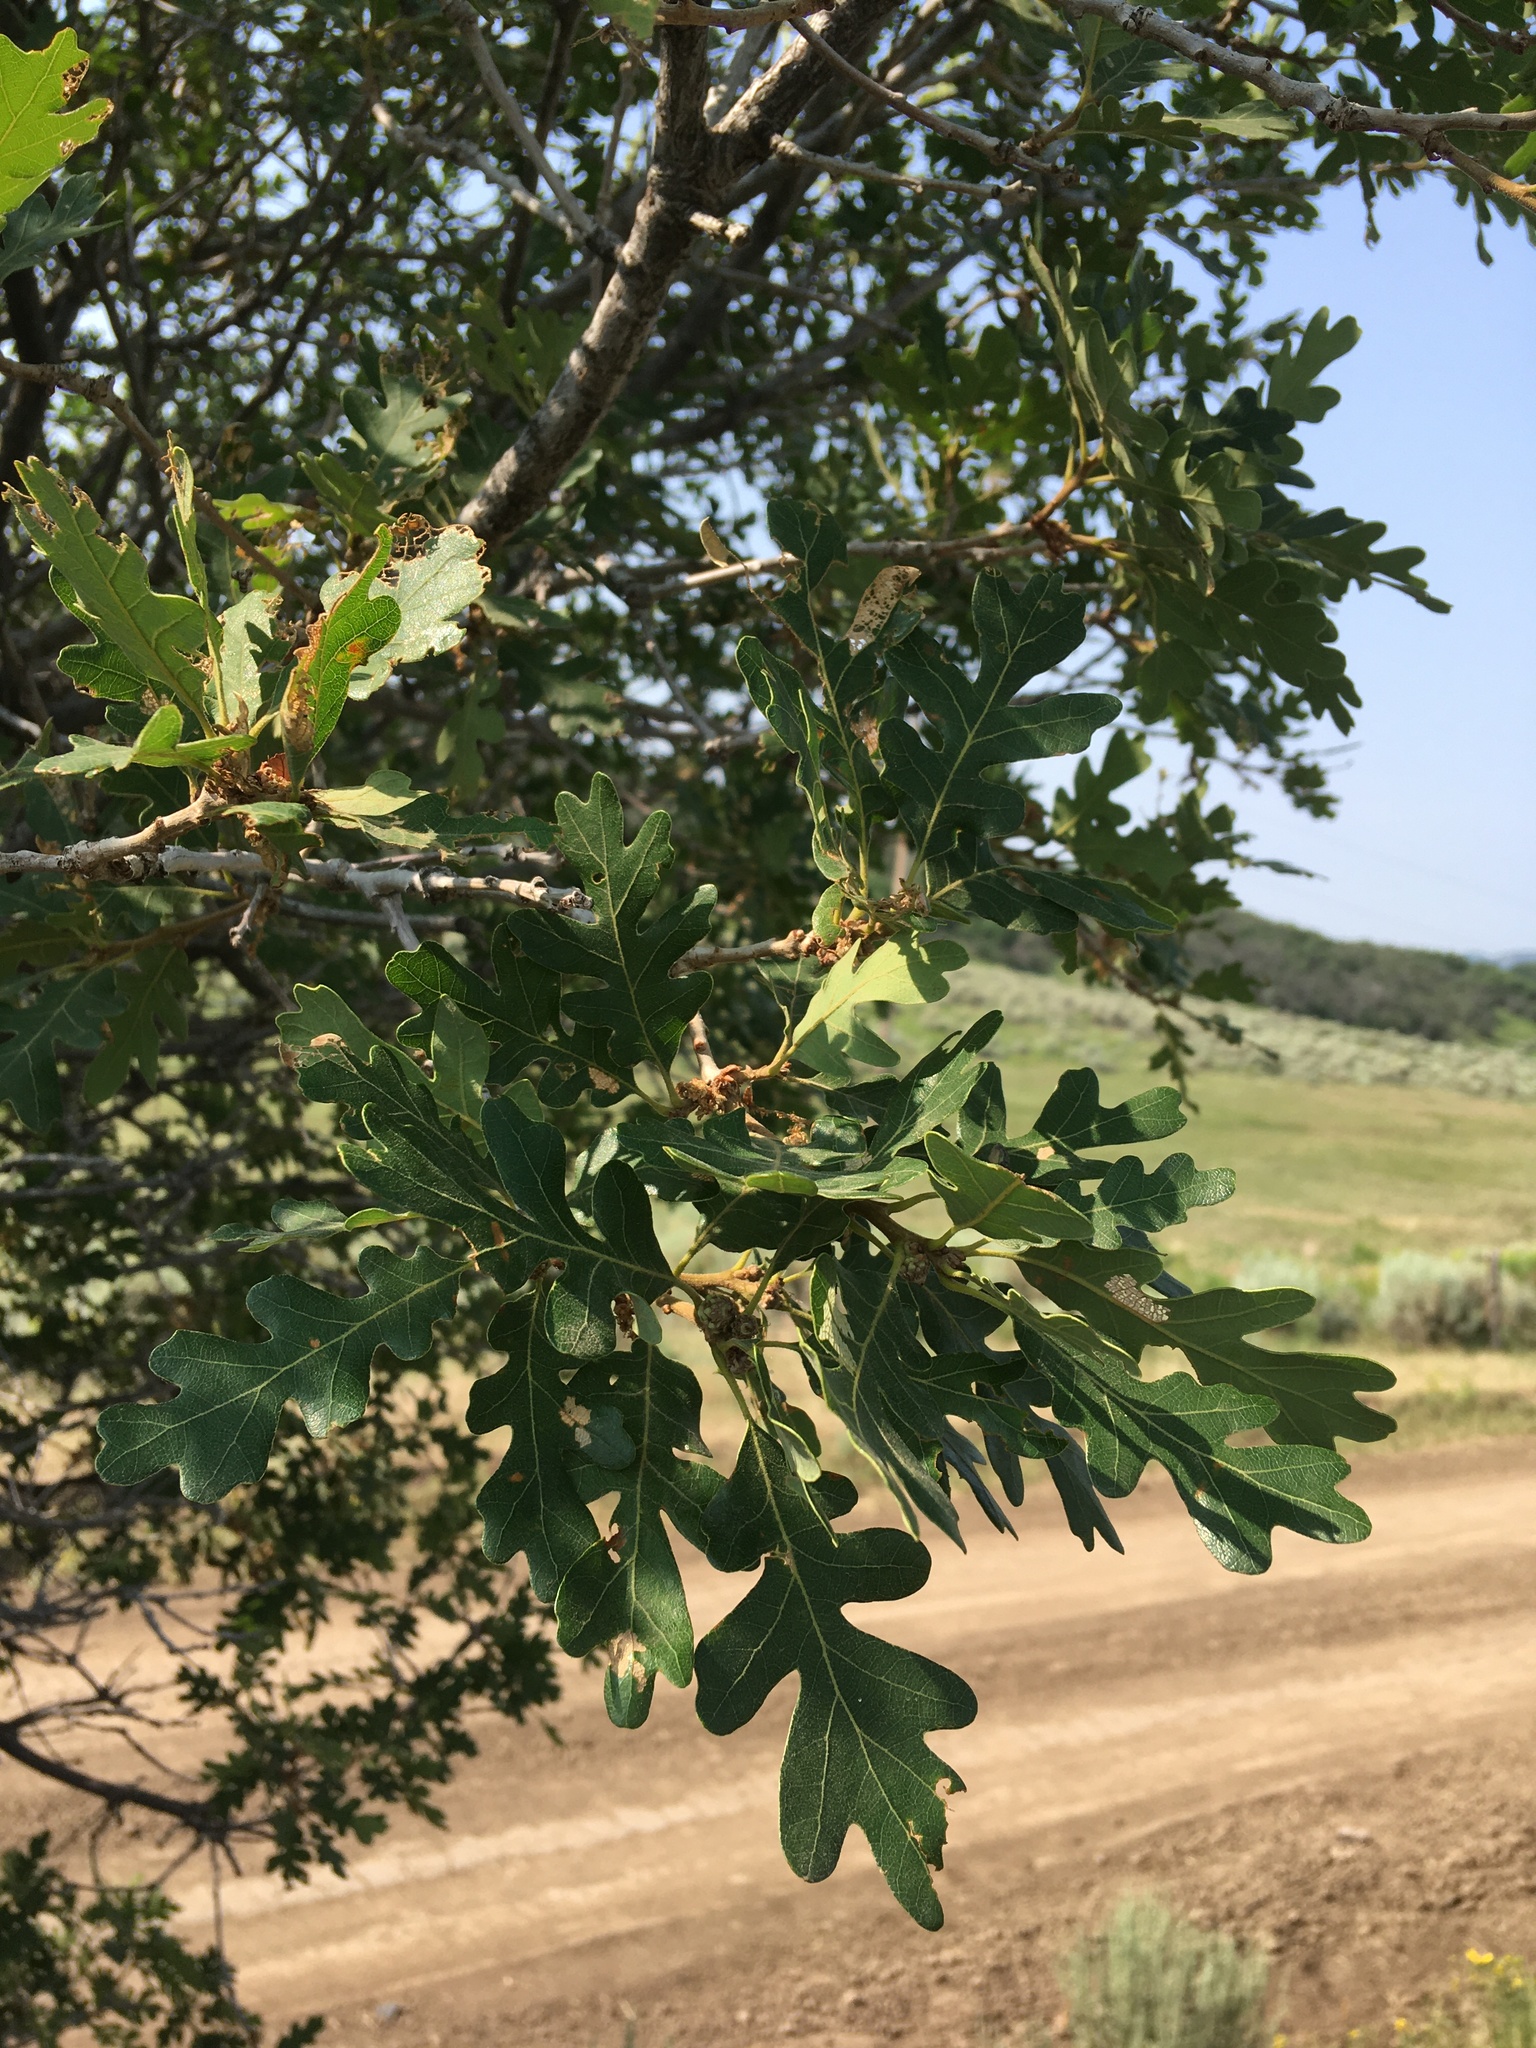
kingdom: Plantae
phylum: Tracheophyta
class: Magnoliopsida
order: Fagales
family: Fagaceae
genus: Quercus
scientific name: Quercus gambelii
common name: Gambel oak
